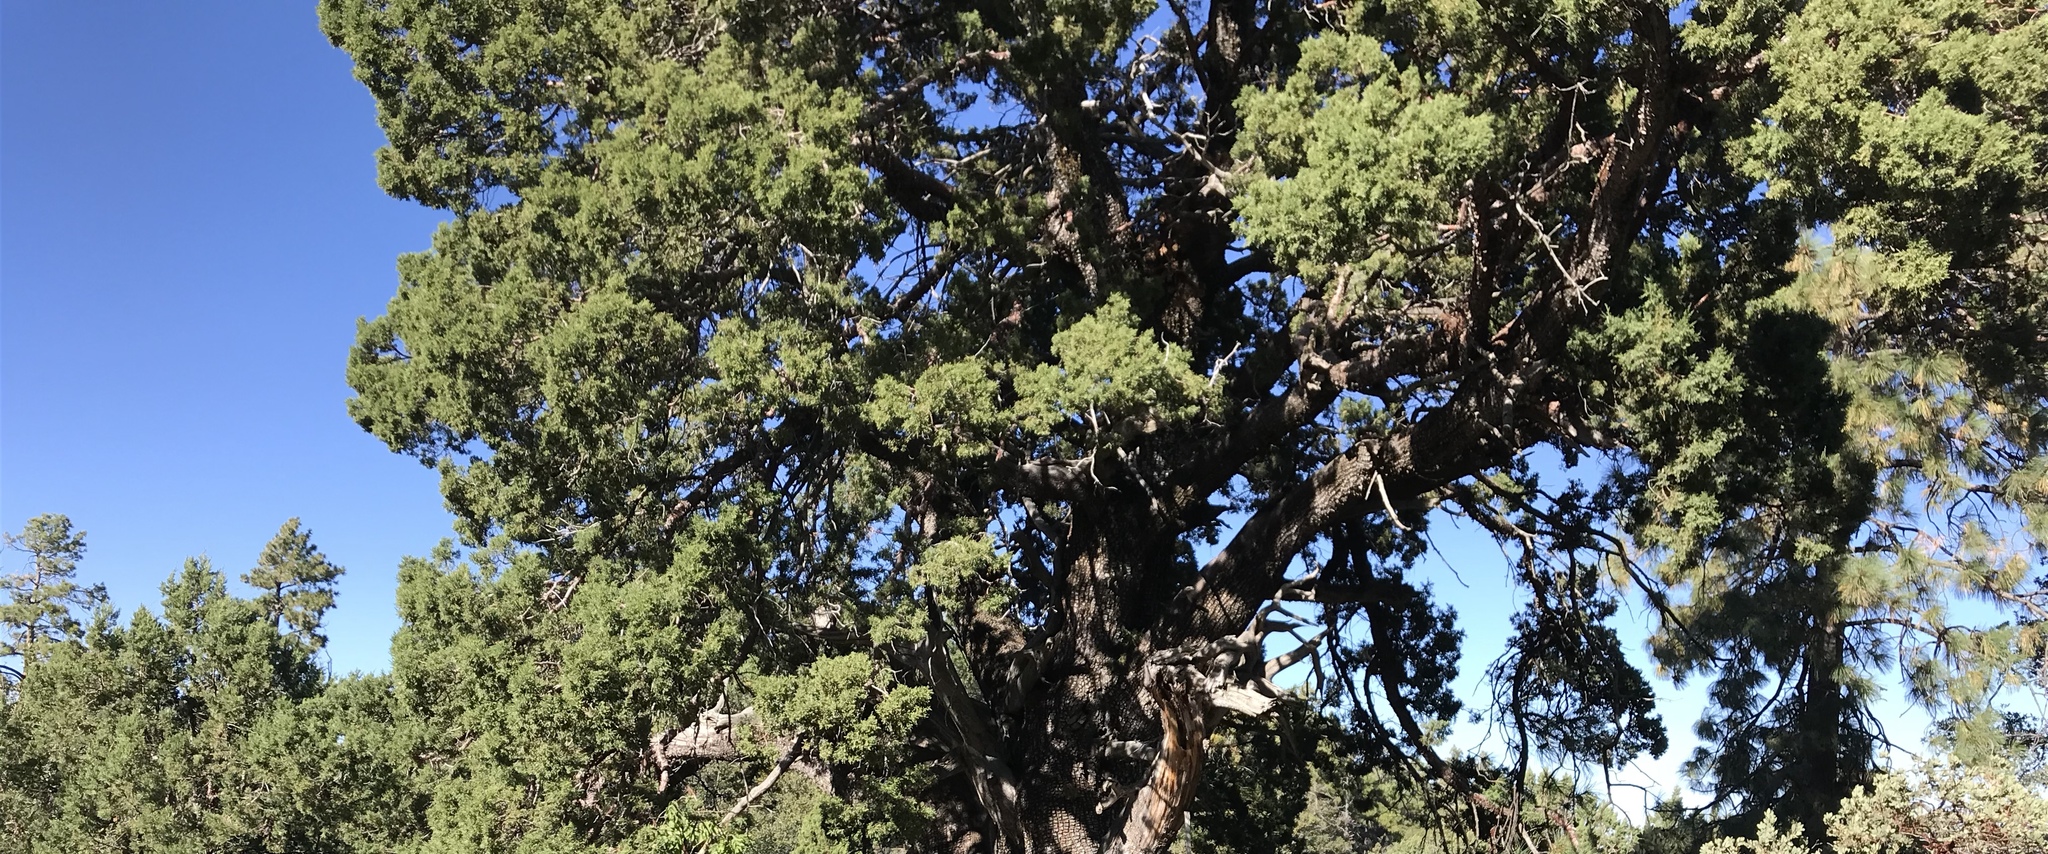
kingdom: Plantae
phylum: Tracheophyta
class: Pinopsida
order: Pinales
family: Cupressaceae
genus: Juniperus
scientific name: Juniperus deppeana
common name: Alligator juniper
